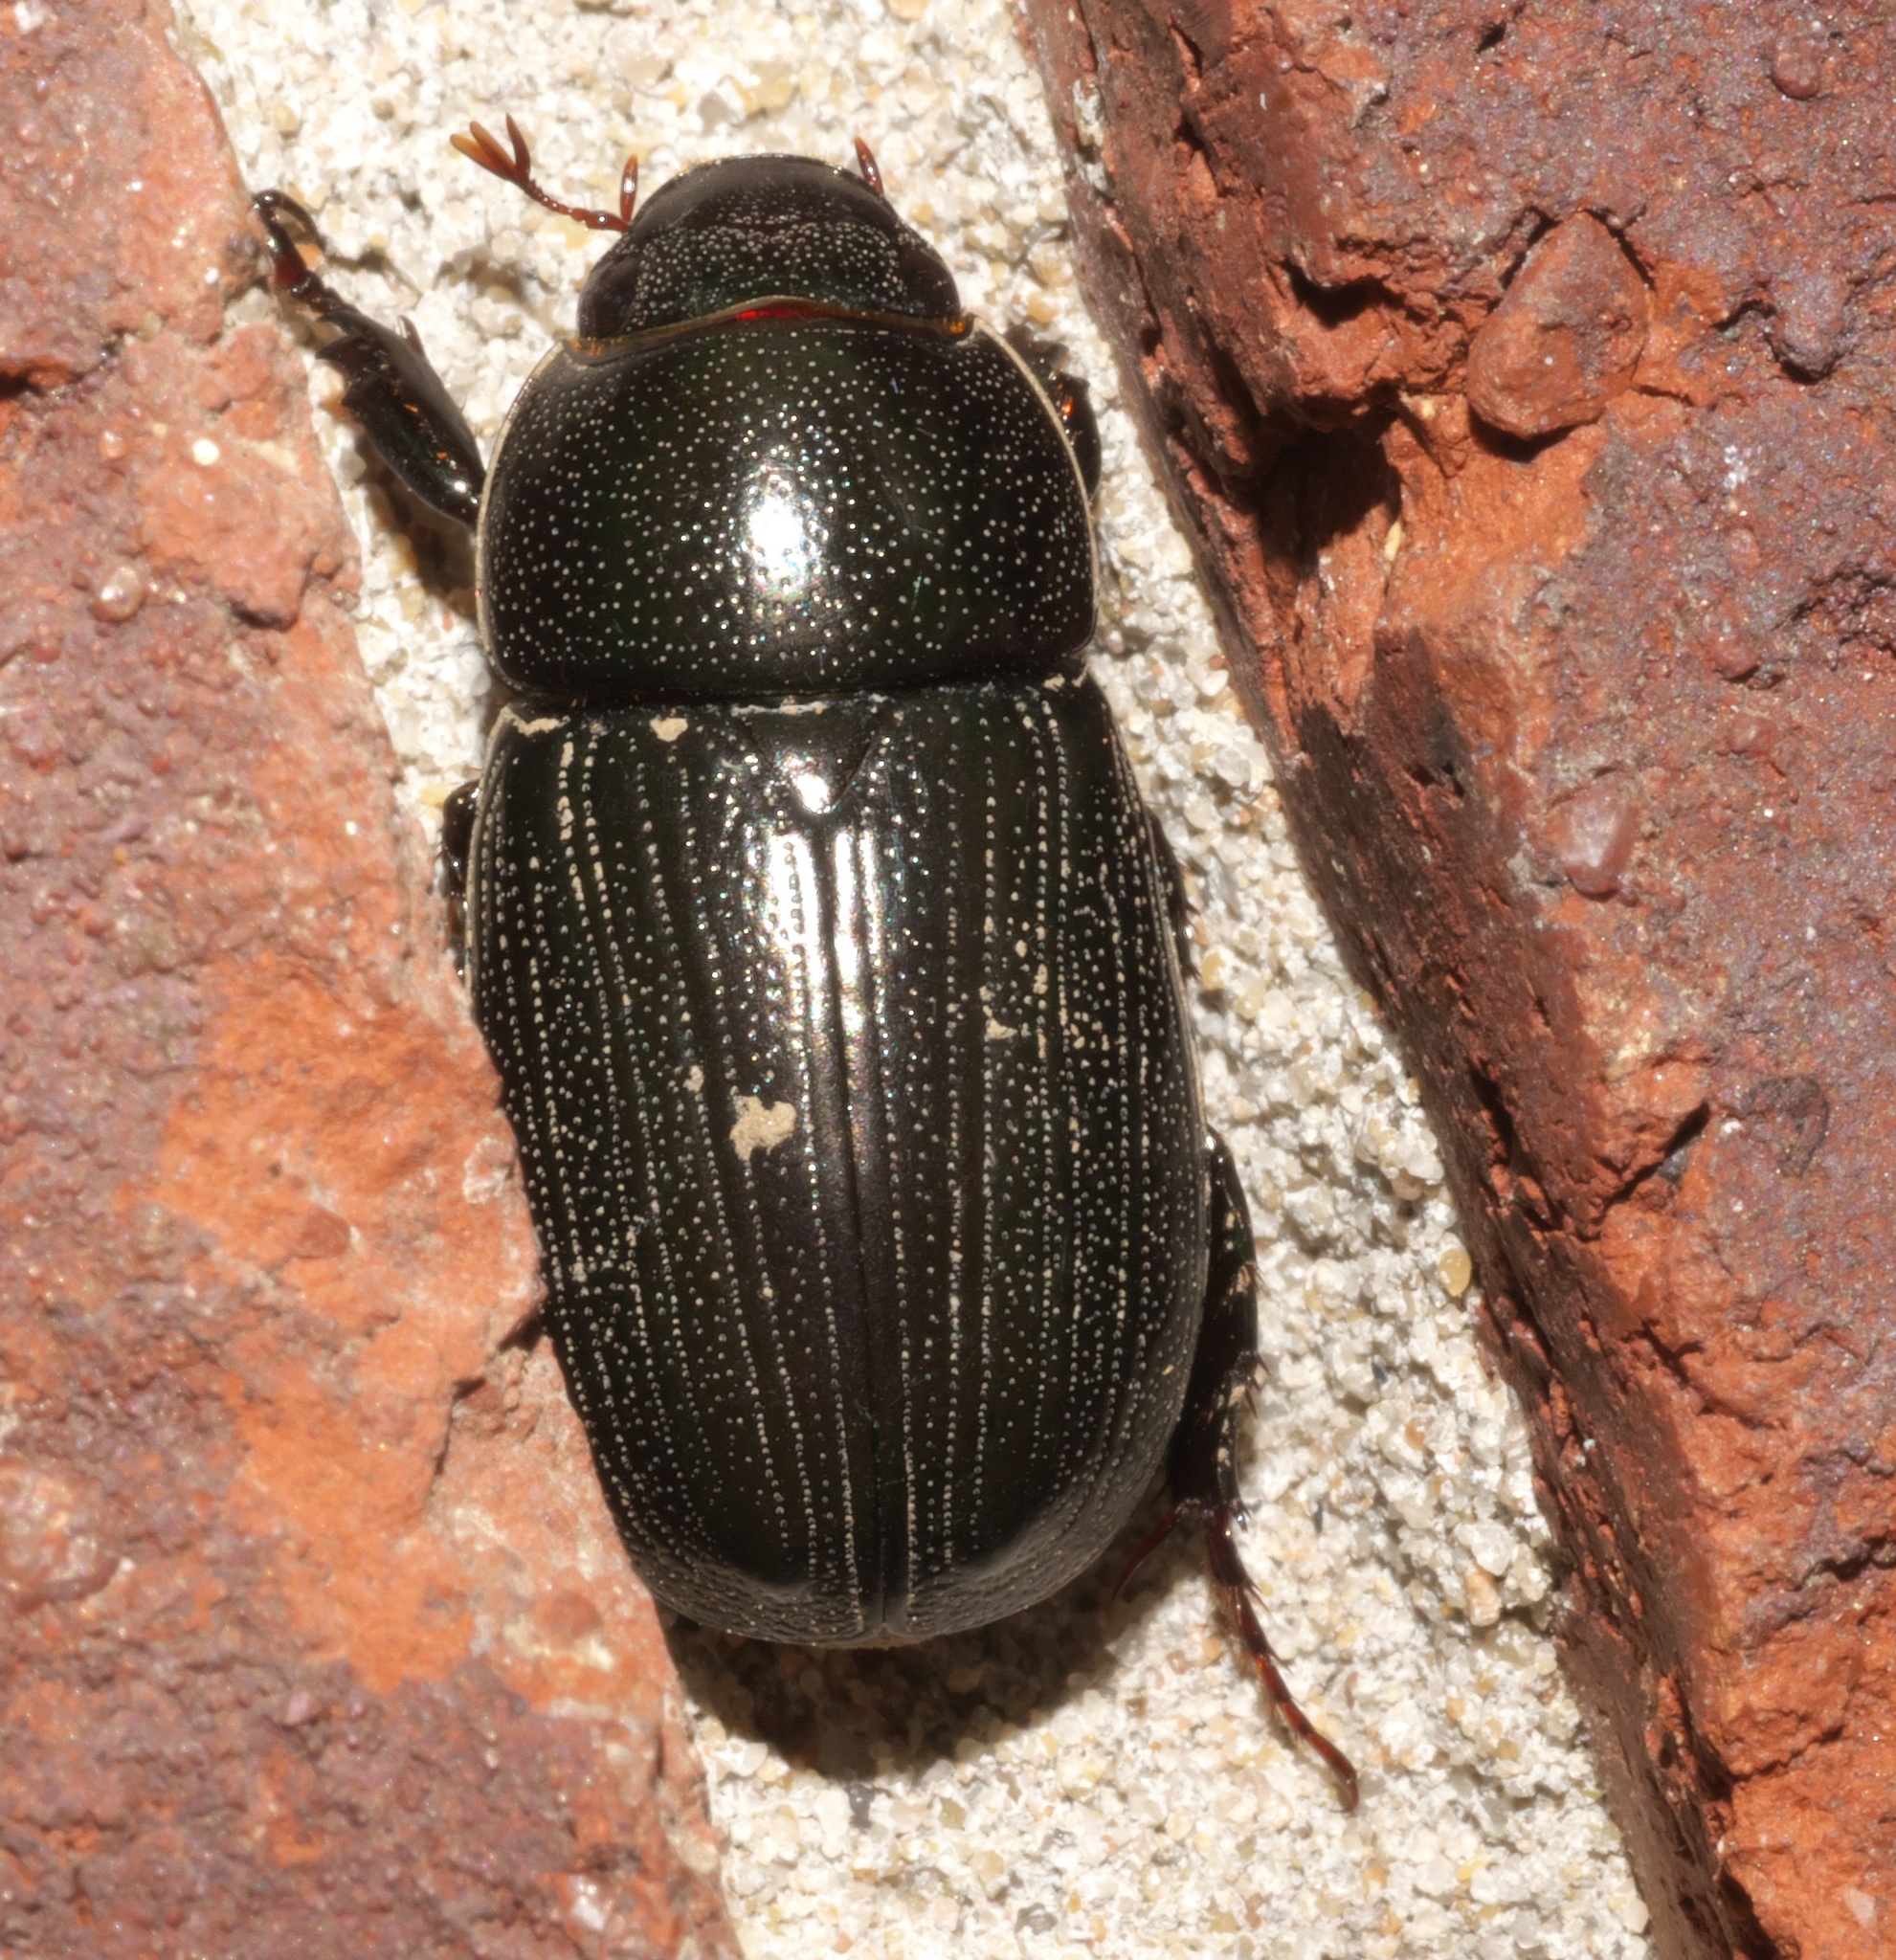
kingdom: Animalia
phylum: Arthropoda
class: Insecta
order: Coleoptera
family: Scarabaeidae
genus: Dyscinetus
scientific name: Dyscinetus morator
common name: Rice beetle
